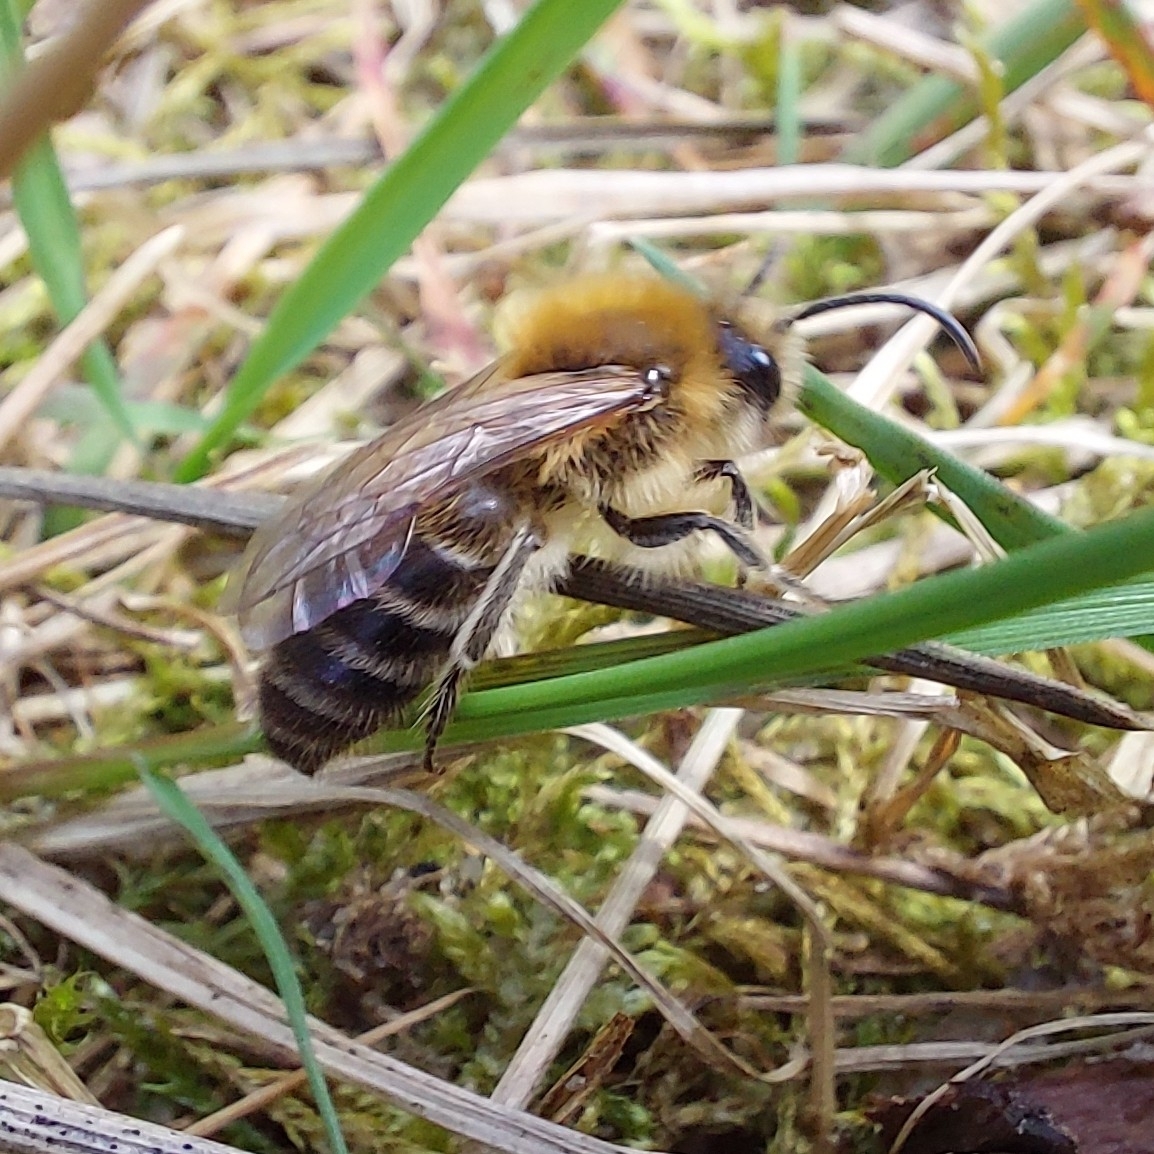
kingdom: Animalia
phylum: Arthropoda
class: Insecta
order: Hymenoptera
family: Colletidae
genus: Colletes
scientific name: Colletes cunicularius
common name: Early colletes
